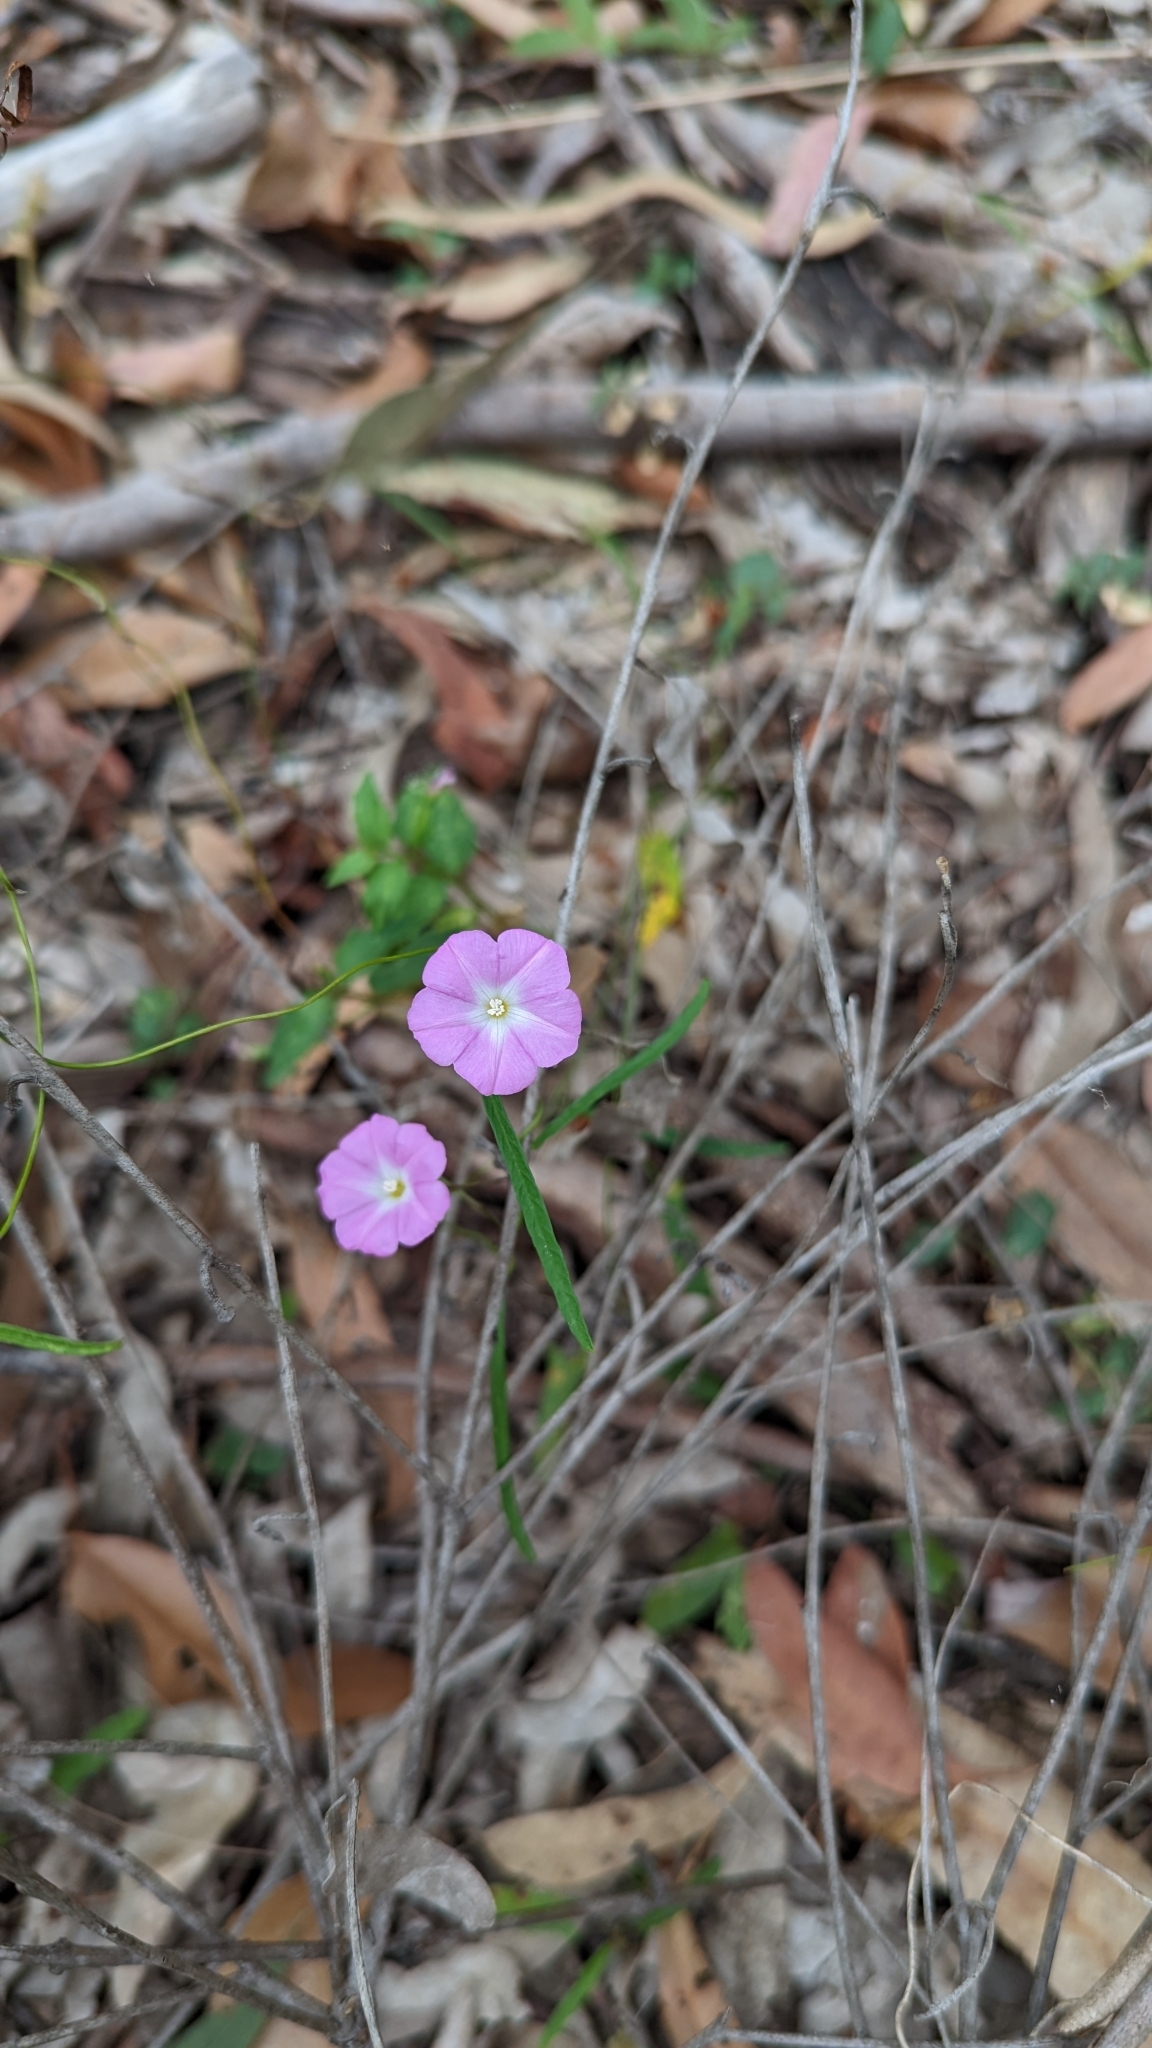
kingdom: Plantae
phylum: Tracheophyta
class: Magnoliopsida
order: Solanales
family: Convolvulaceae
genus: Polymeria
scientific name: Polymeria calycina
